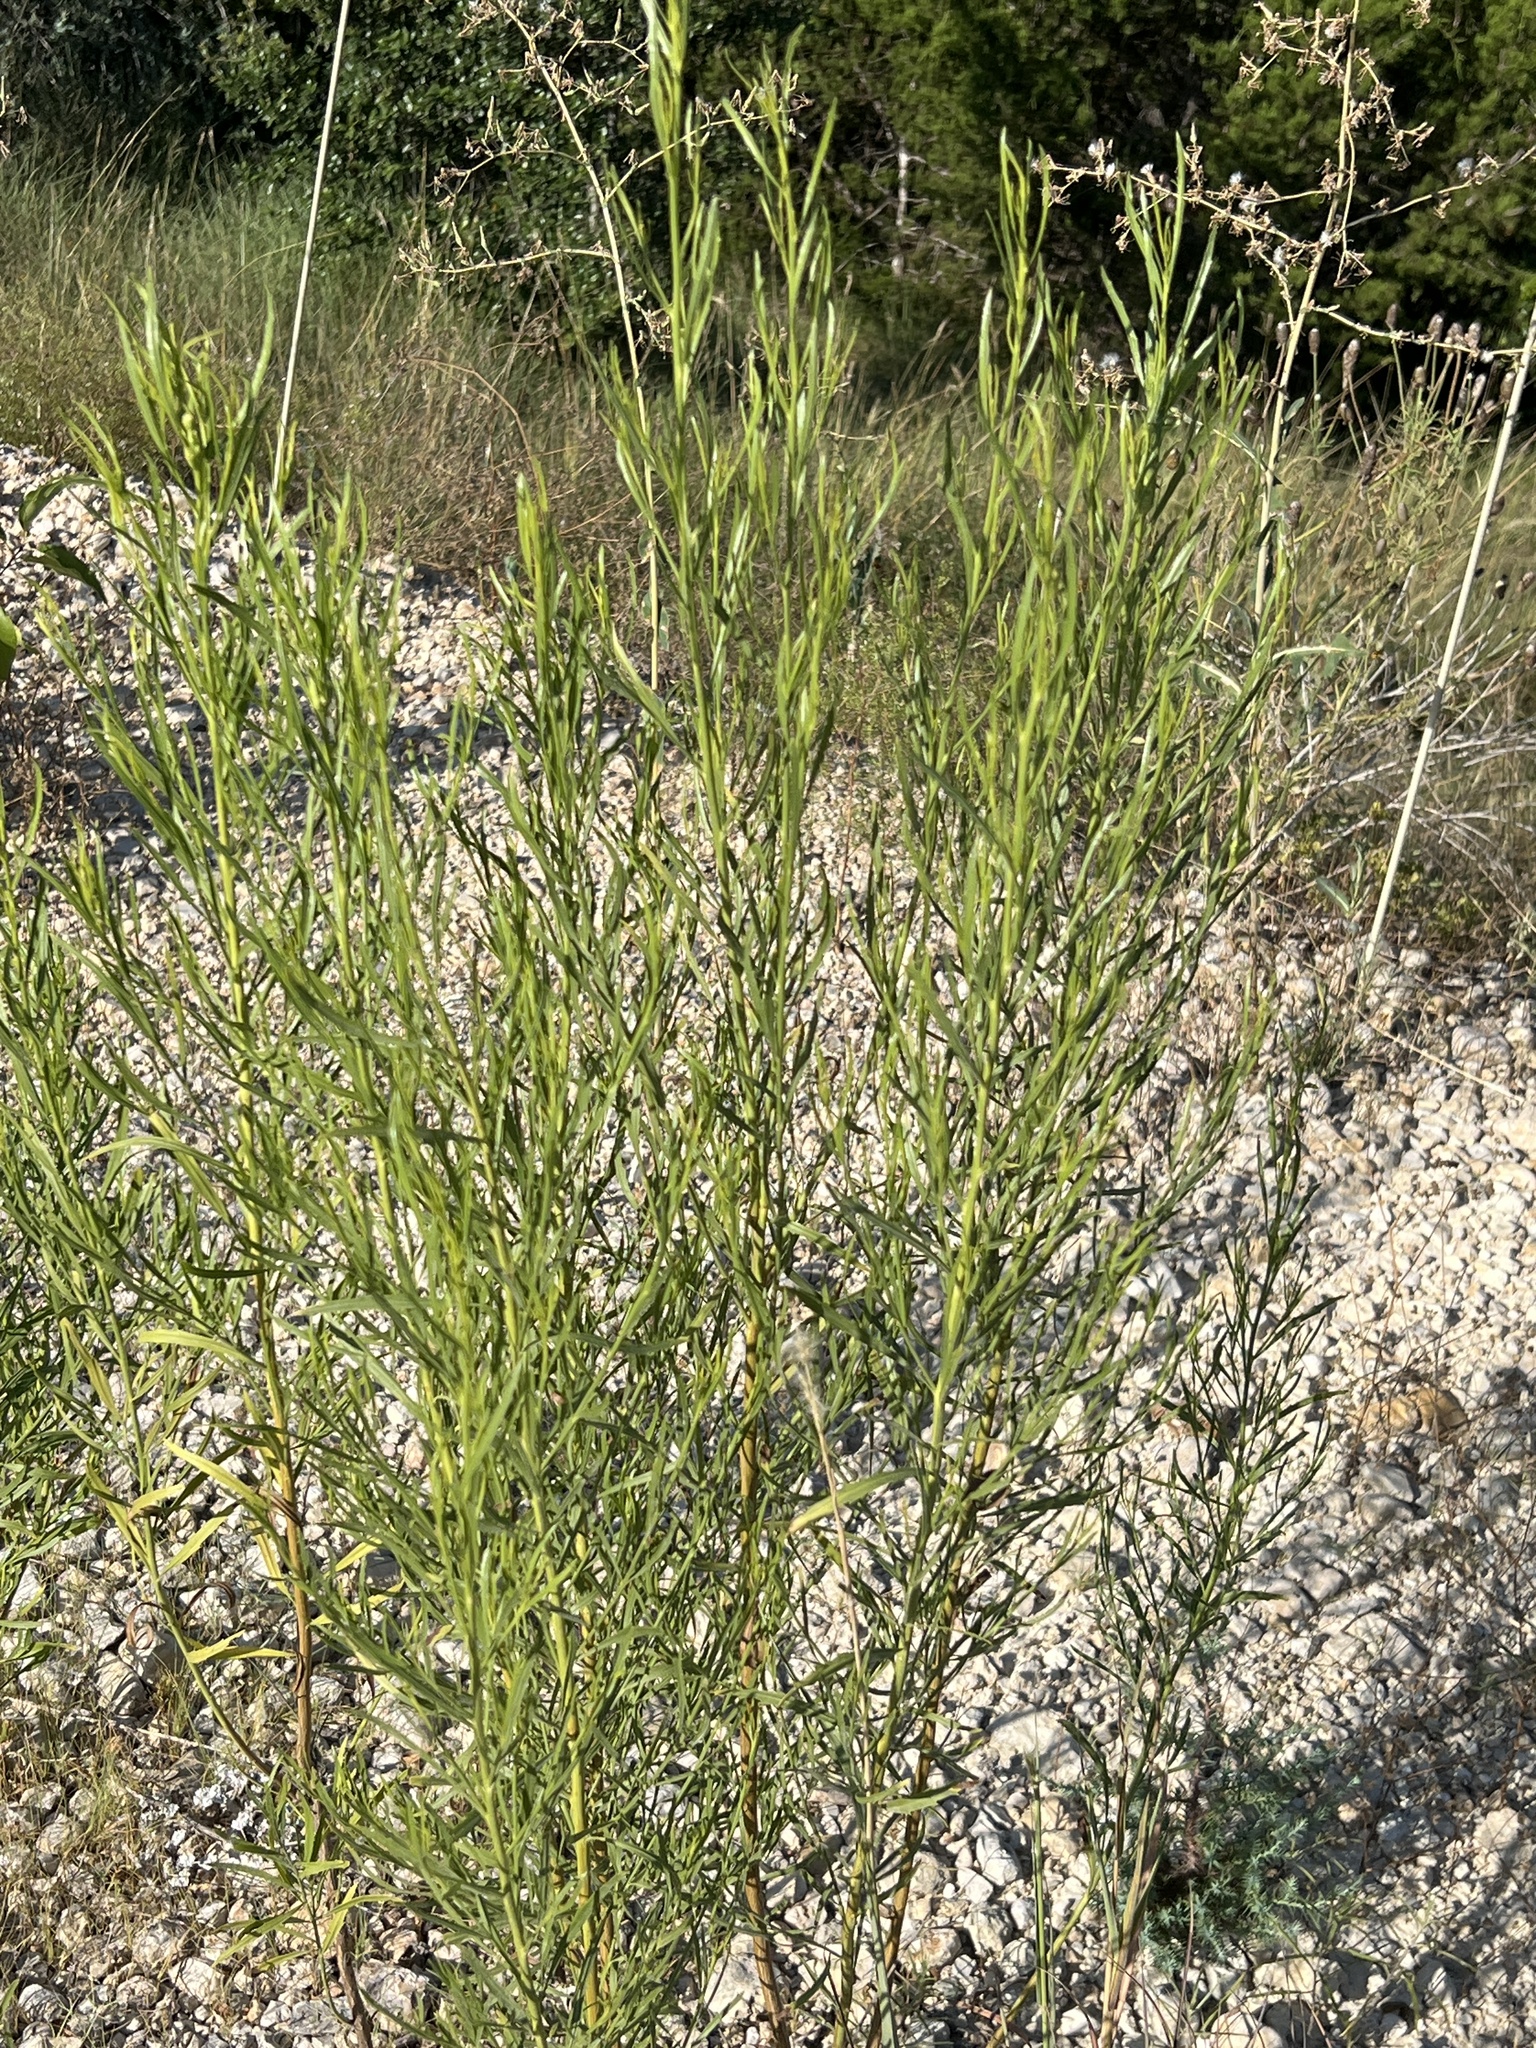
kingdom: Plantae
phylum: Tracheophyta
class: Magnoliopsida
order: Asterales
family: Asteraceae
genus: Baccharis
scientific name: Baccharis neglecta
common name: Roosevelt-weed
